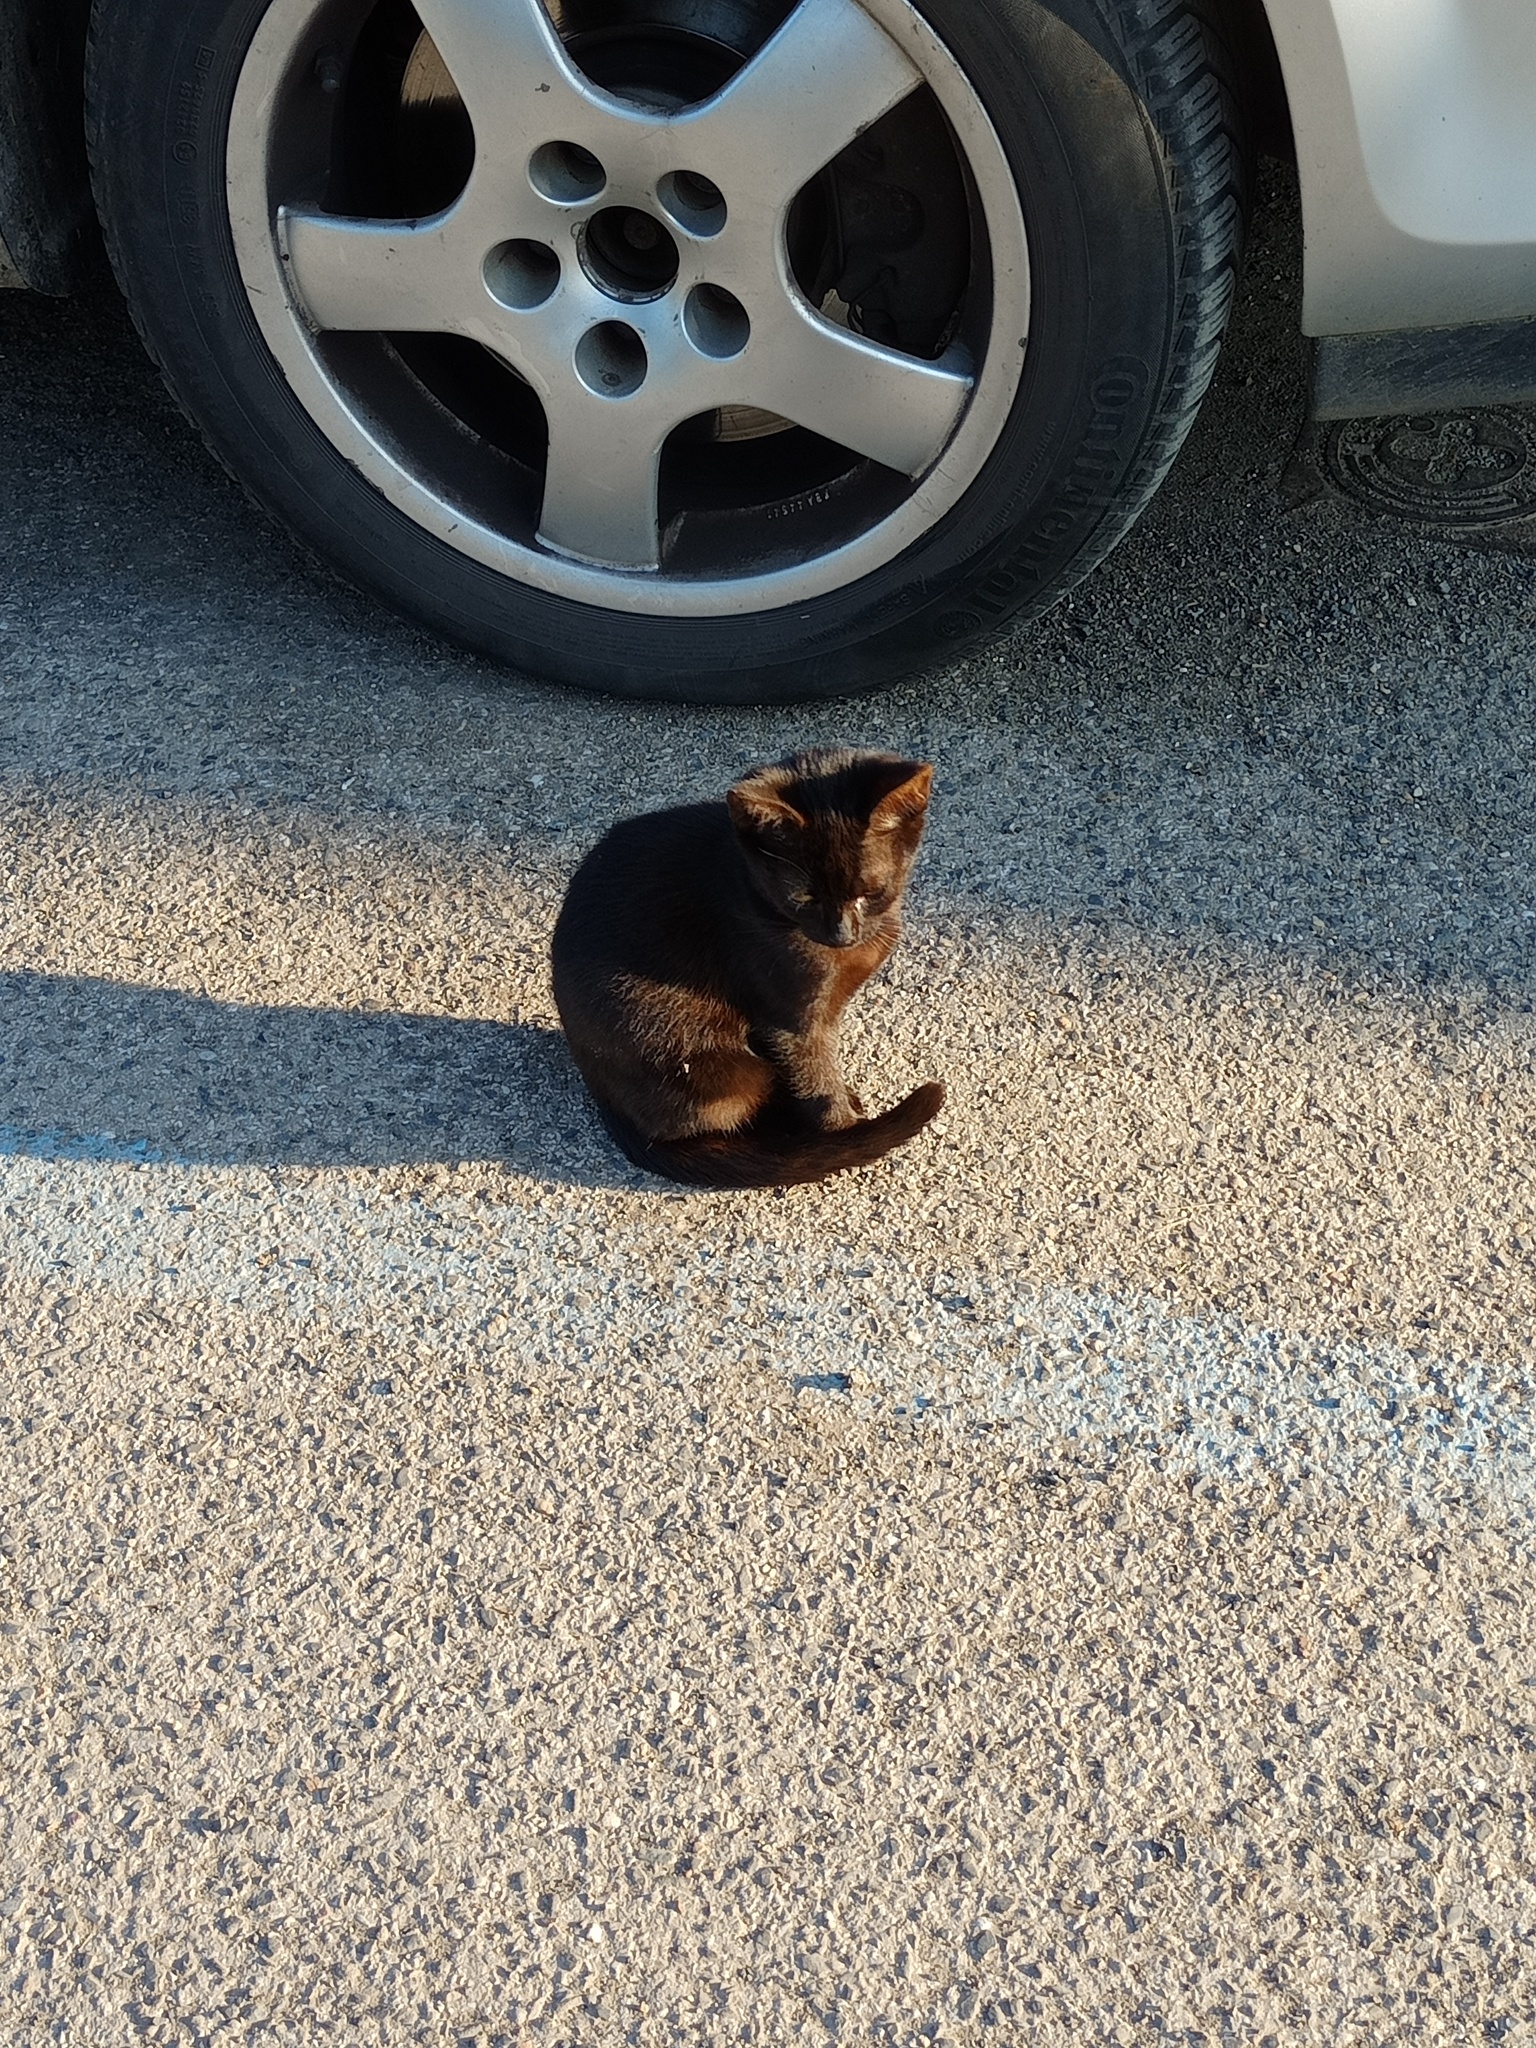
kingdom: Animalia
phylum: Chordata
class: Mammalia
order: Carnivora
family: Felidae
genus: Felis
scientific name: Felis catus
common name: Domestic cat
